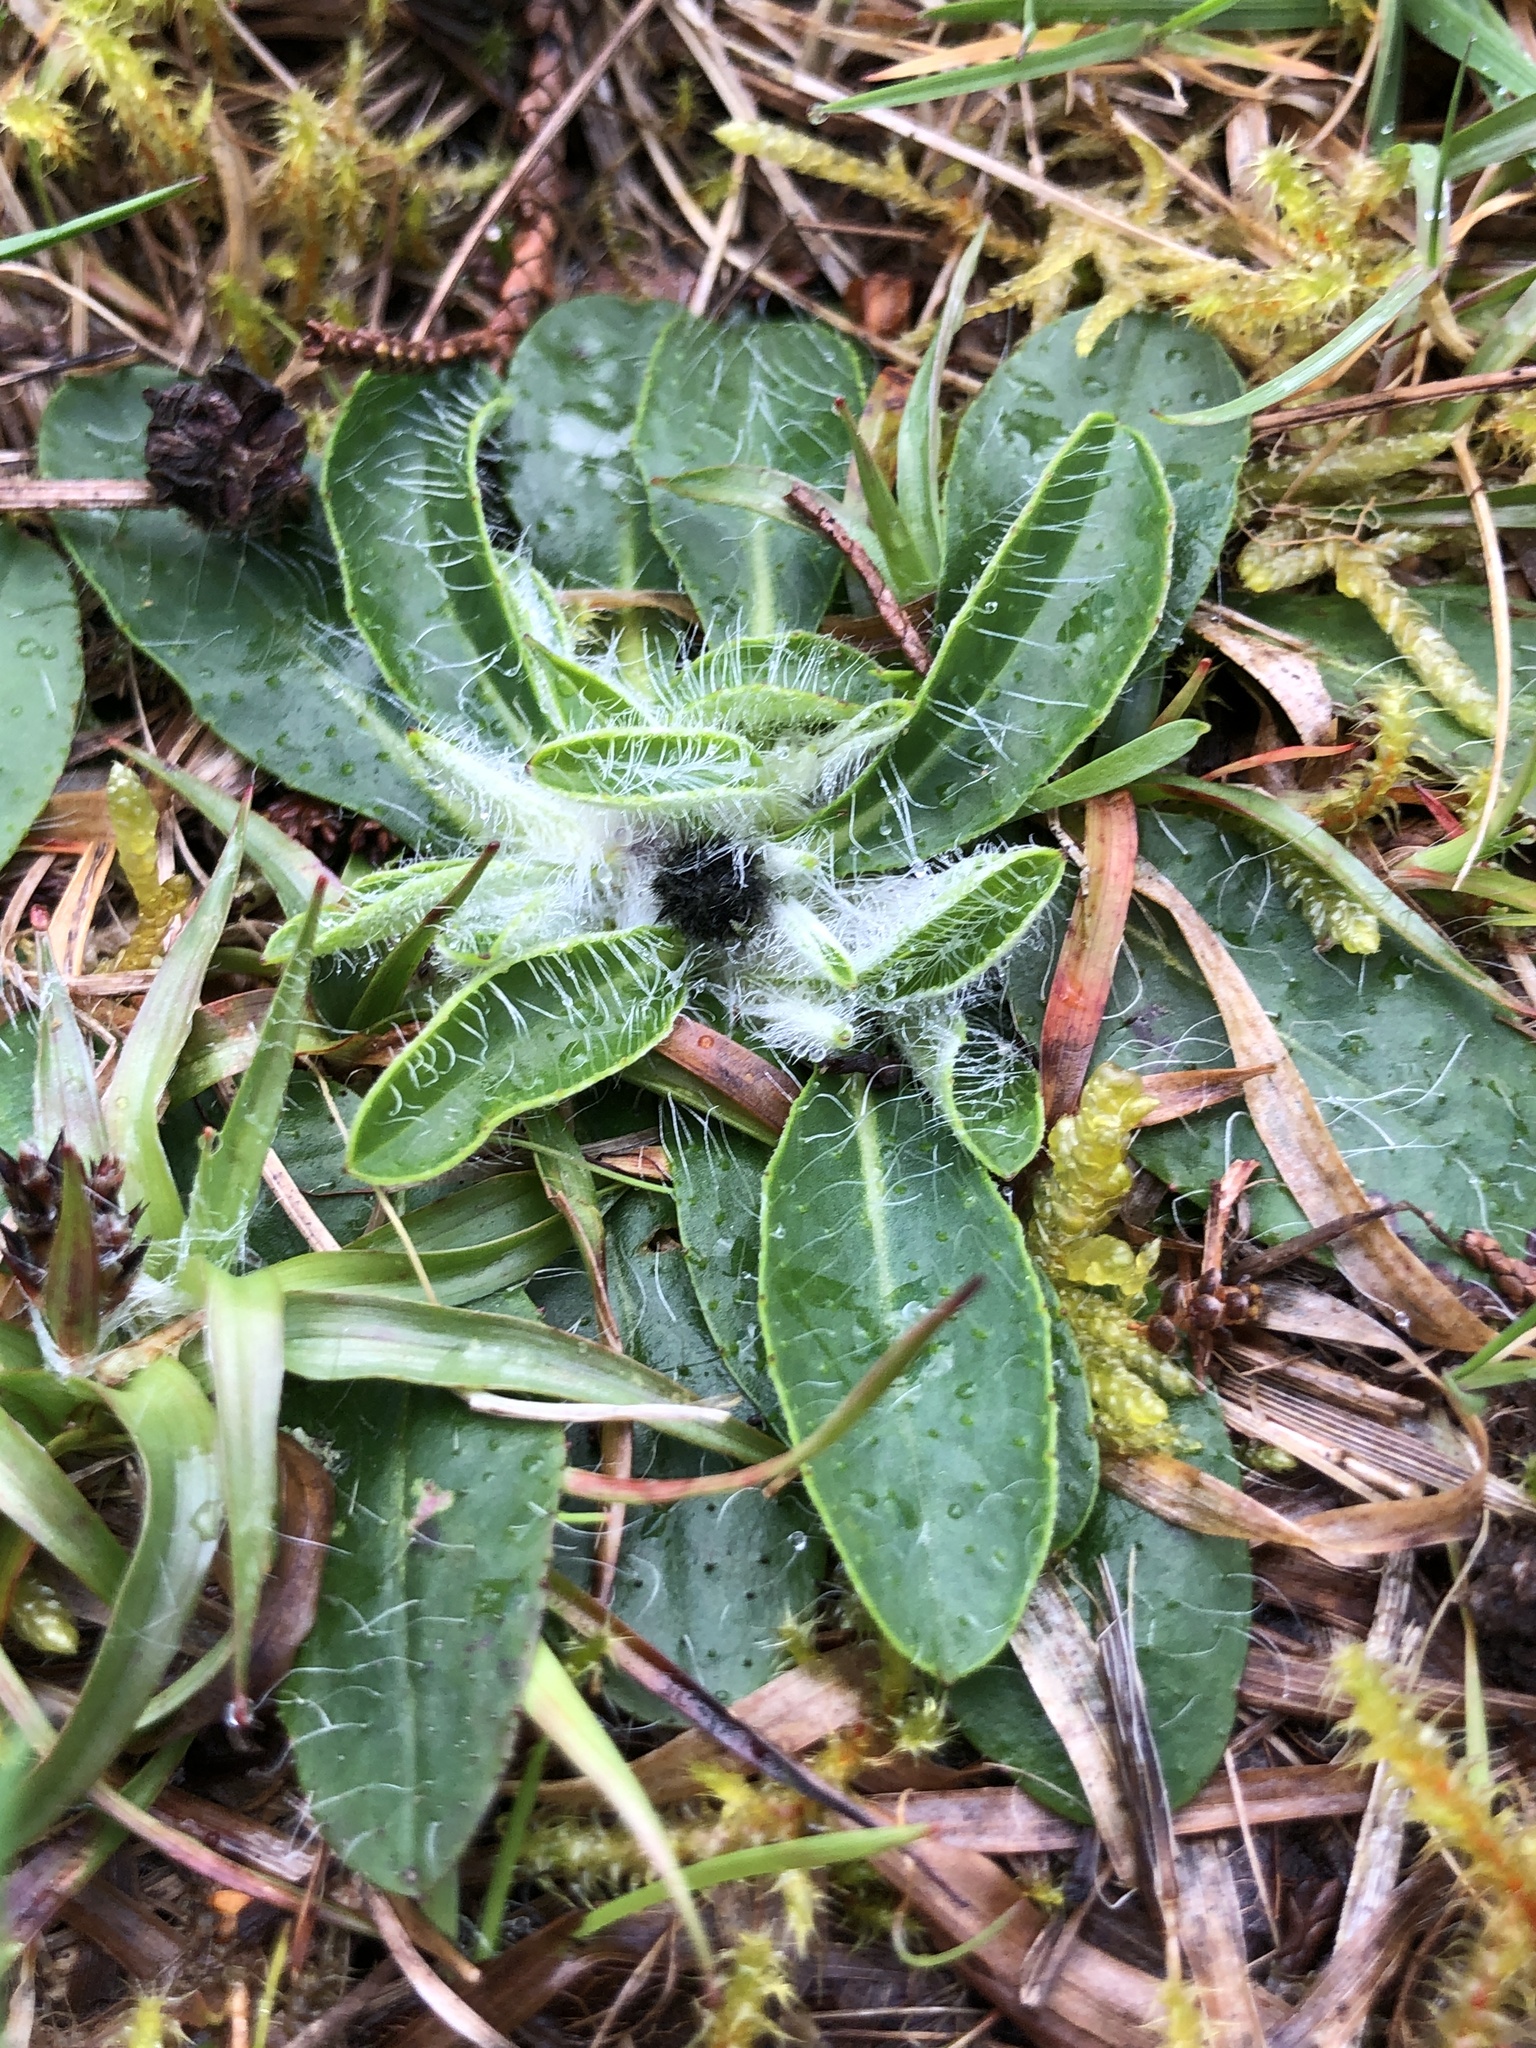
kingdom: Plantae
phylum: Tracheophyta
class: Magnoliopsida
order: Asterales
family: Asteraceae
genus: Pilosella
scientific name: Pilosella officinarum
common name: Mouse-ear hawkweed
